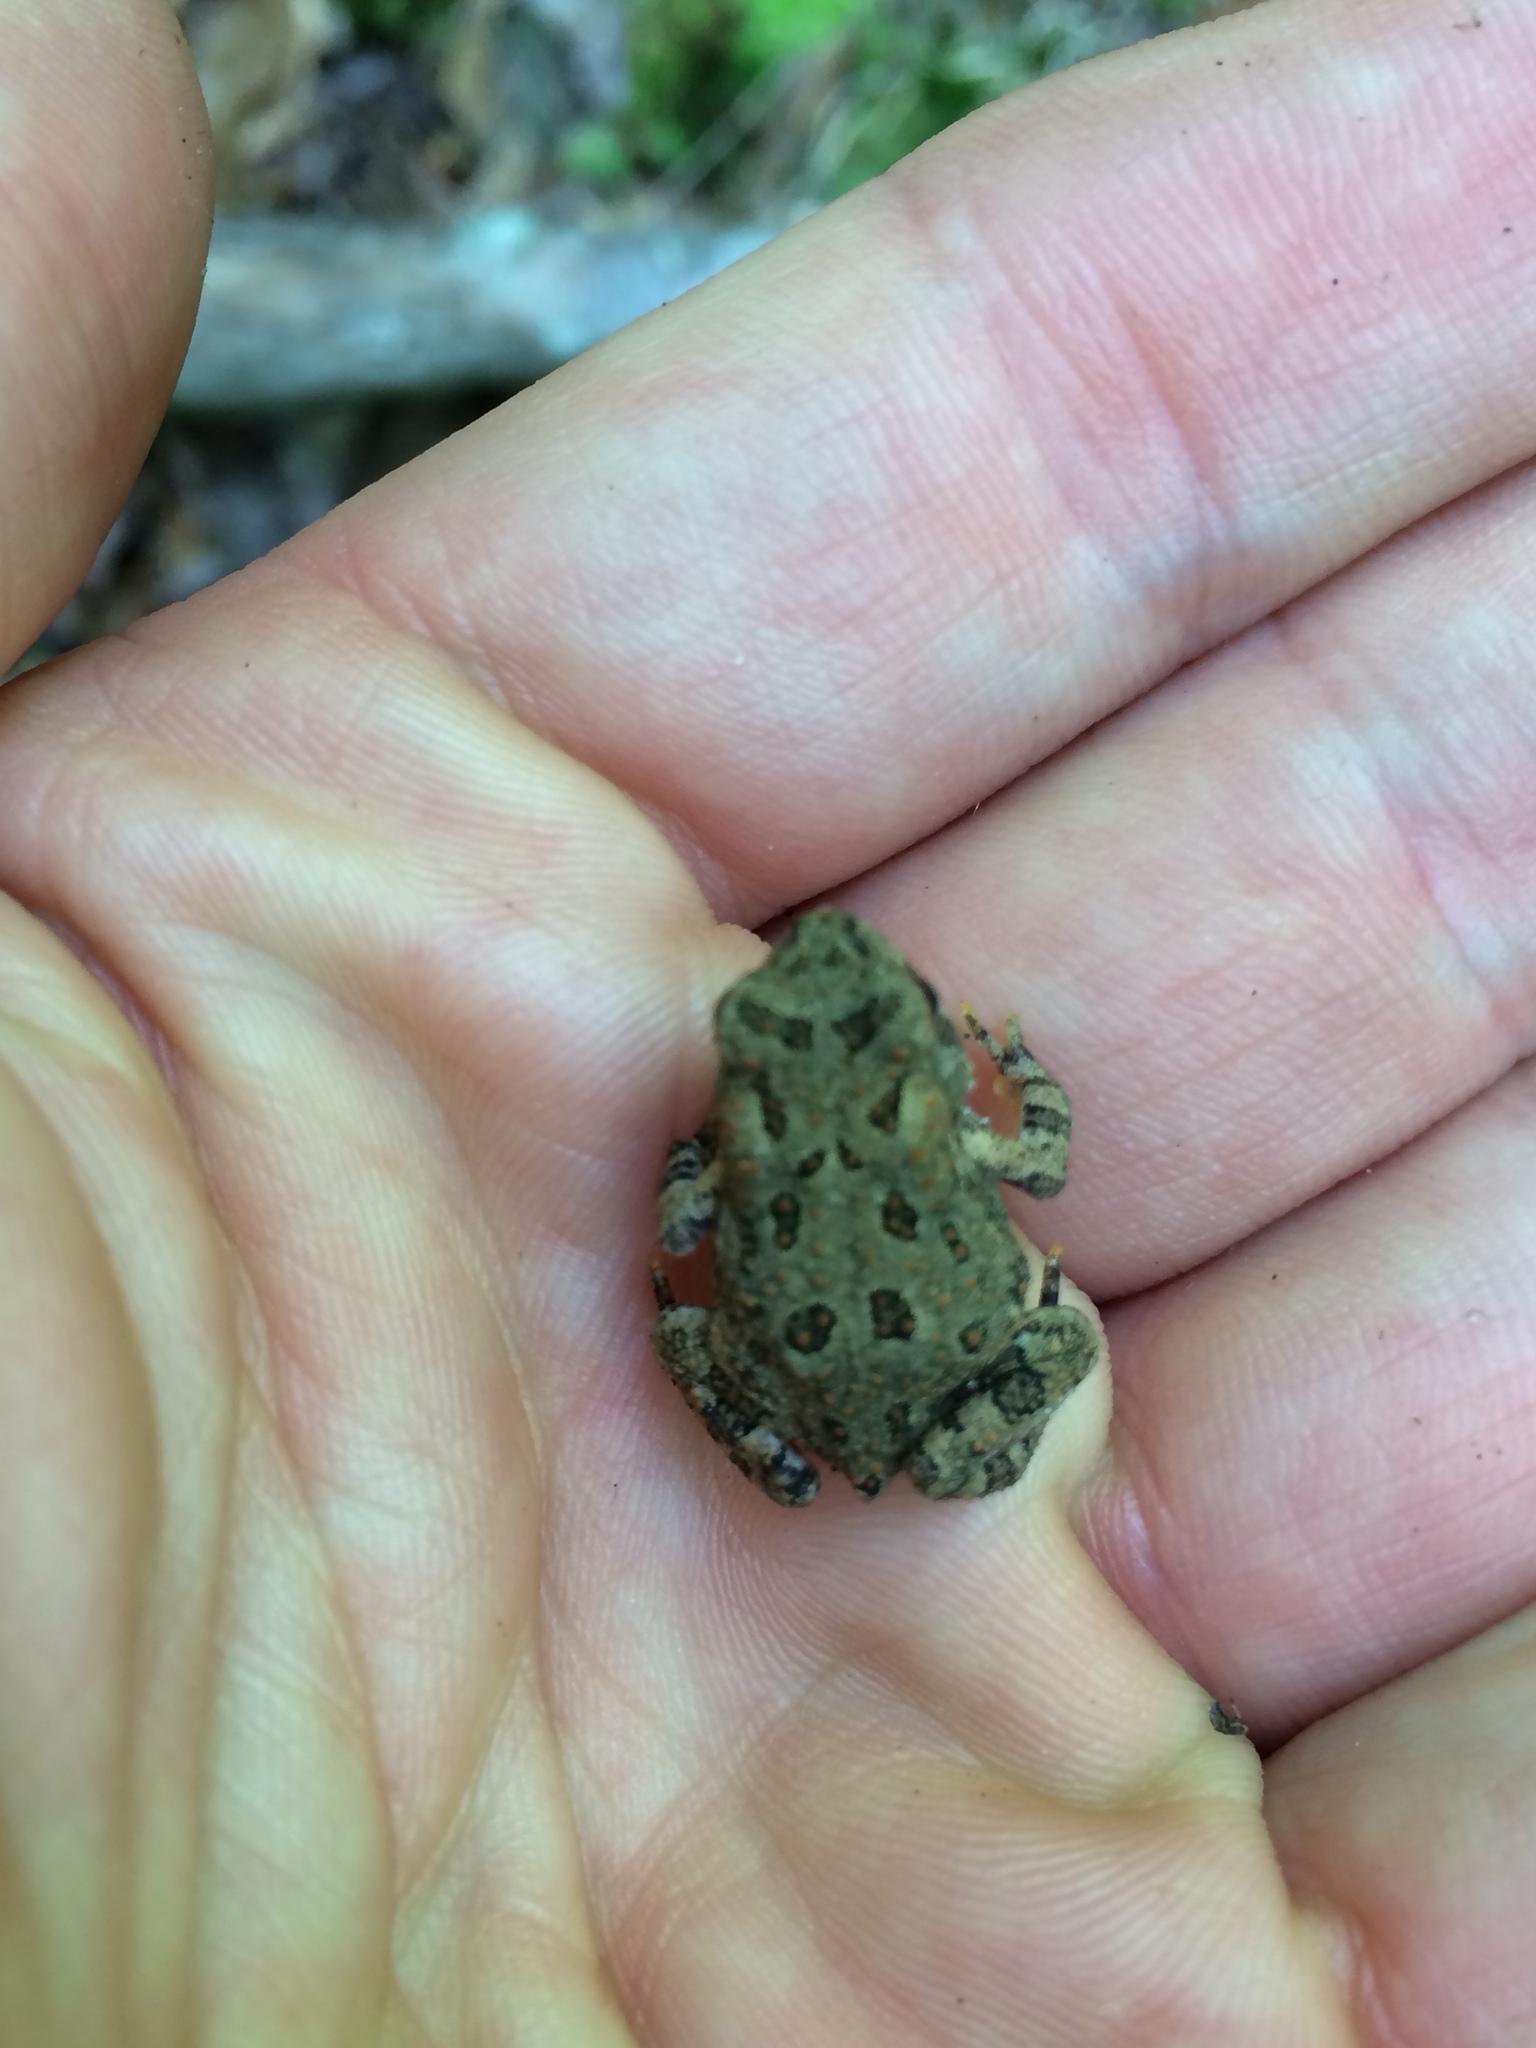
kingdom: Animalia
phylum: Chordata
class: Amphibia
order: Anura
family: Bufonidae
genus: Anaxyrus
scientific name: Anaxyrus fowleri
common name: Fowler's toad
